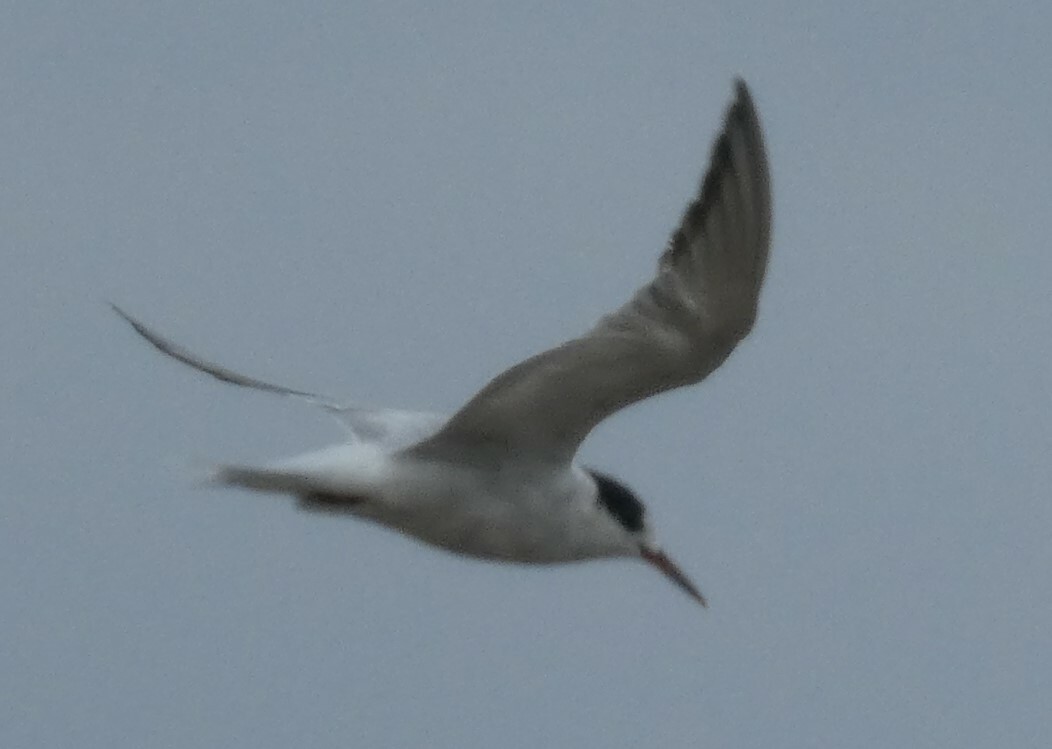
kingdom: Animalia
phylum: Chordata
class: Aves
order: Charadriiformes
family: Laridae
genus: Sterna
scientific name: Sterna hirundo
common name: Common tern
